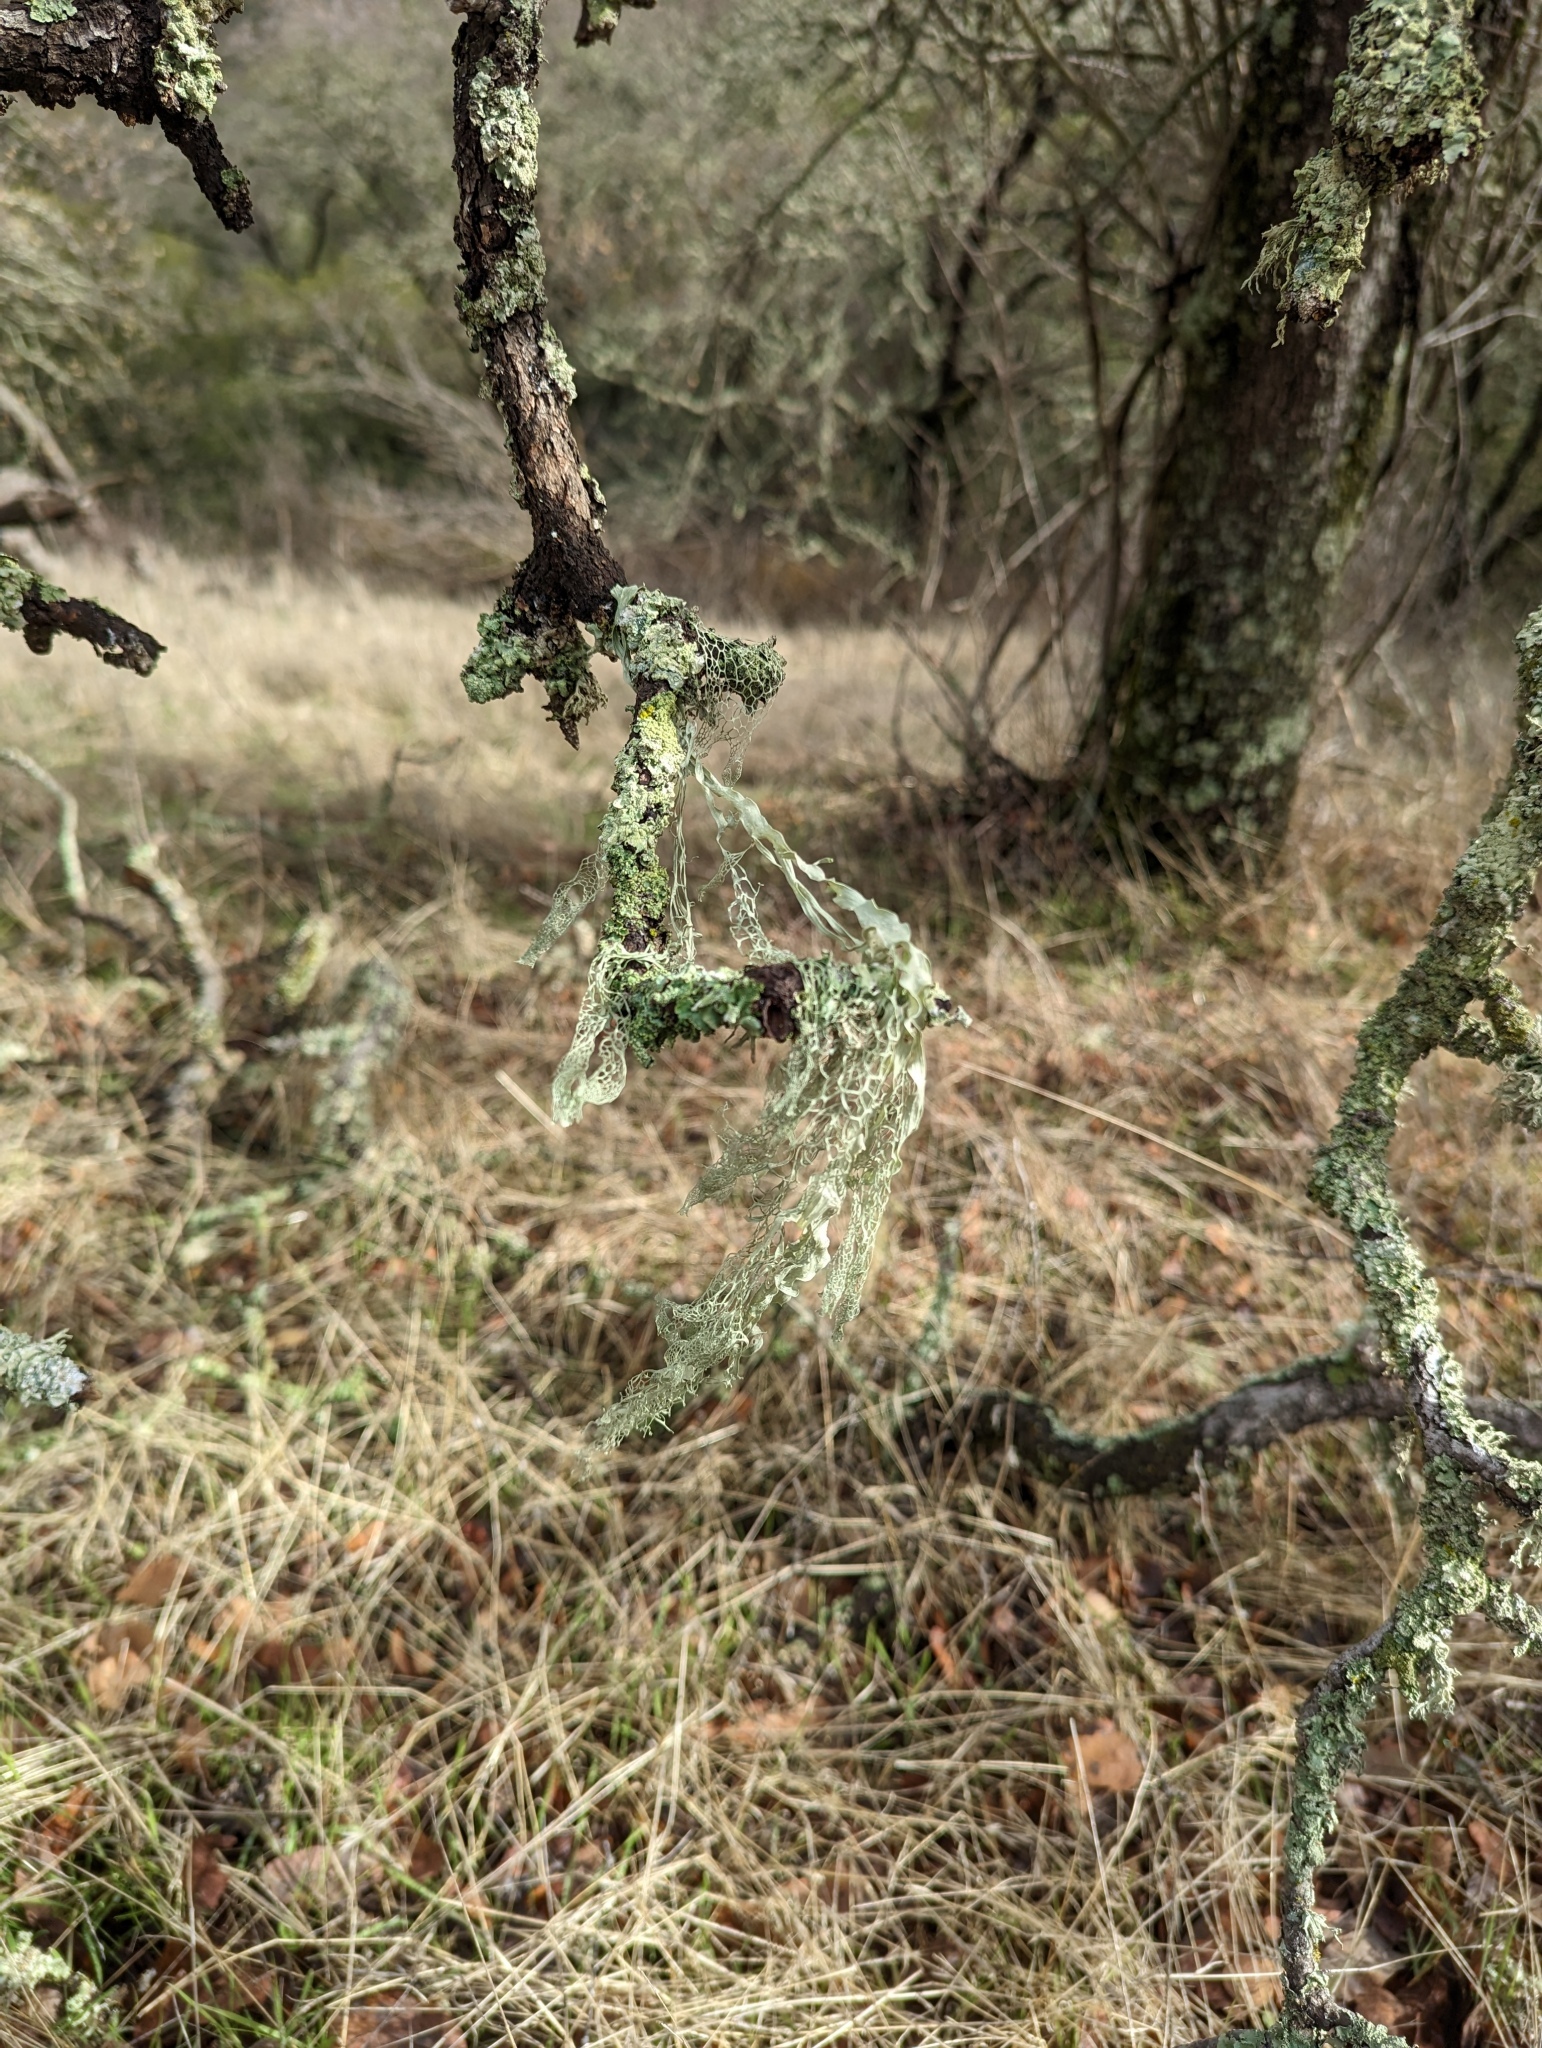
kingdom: Fungi
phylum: Ascomycota
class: Lecanoromycetes
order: Lecanorales
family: Ramalinaceae
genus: Ramalina
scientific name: Ramalina menziesii
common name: Lace lichen
